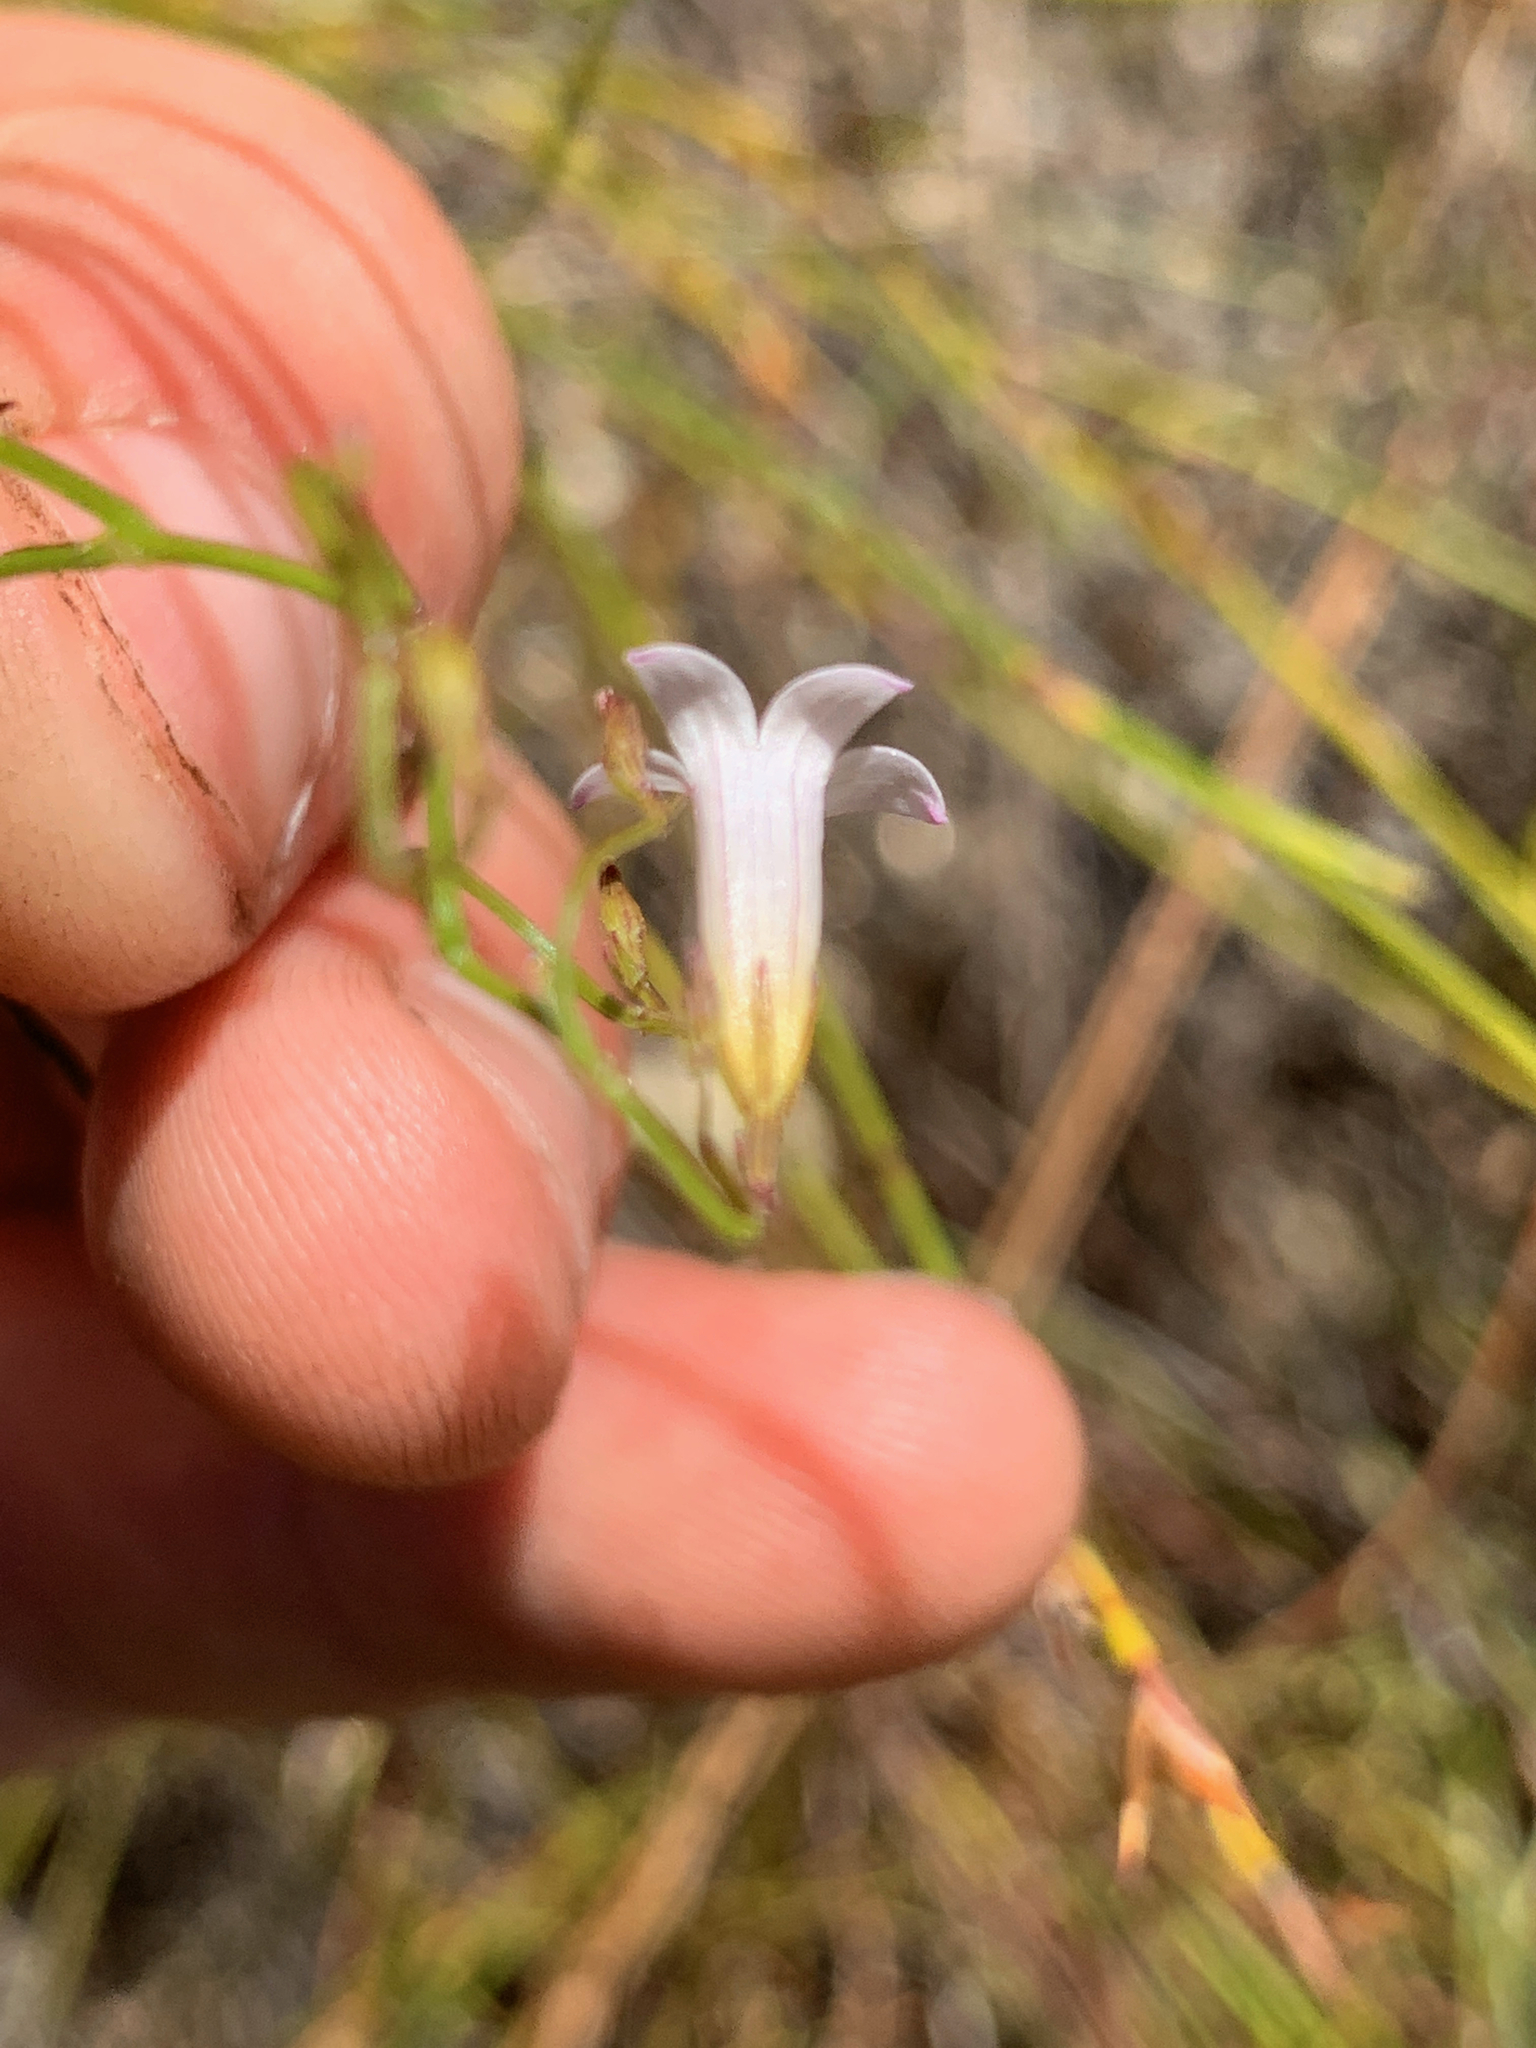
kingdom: Plantae
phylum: Tracheophyta
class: Magnoliopsida
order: Asterales
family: Campanulaceae
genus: Siphocodon
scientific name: Siphocodon debilis
